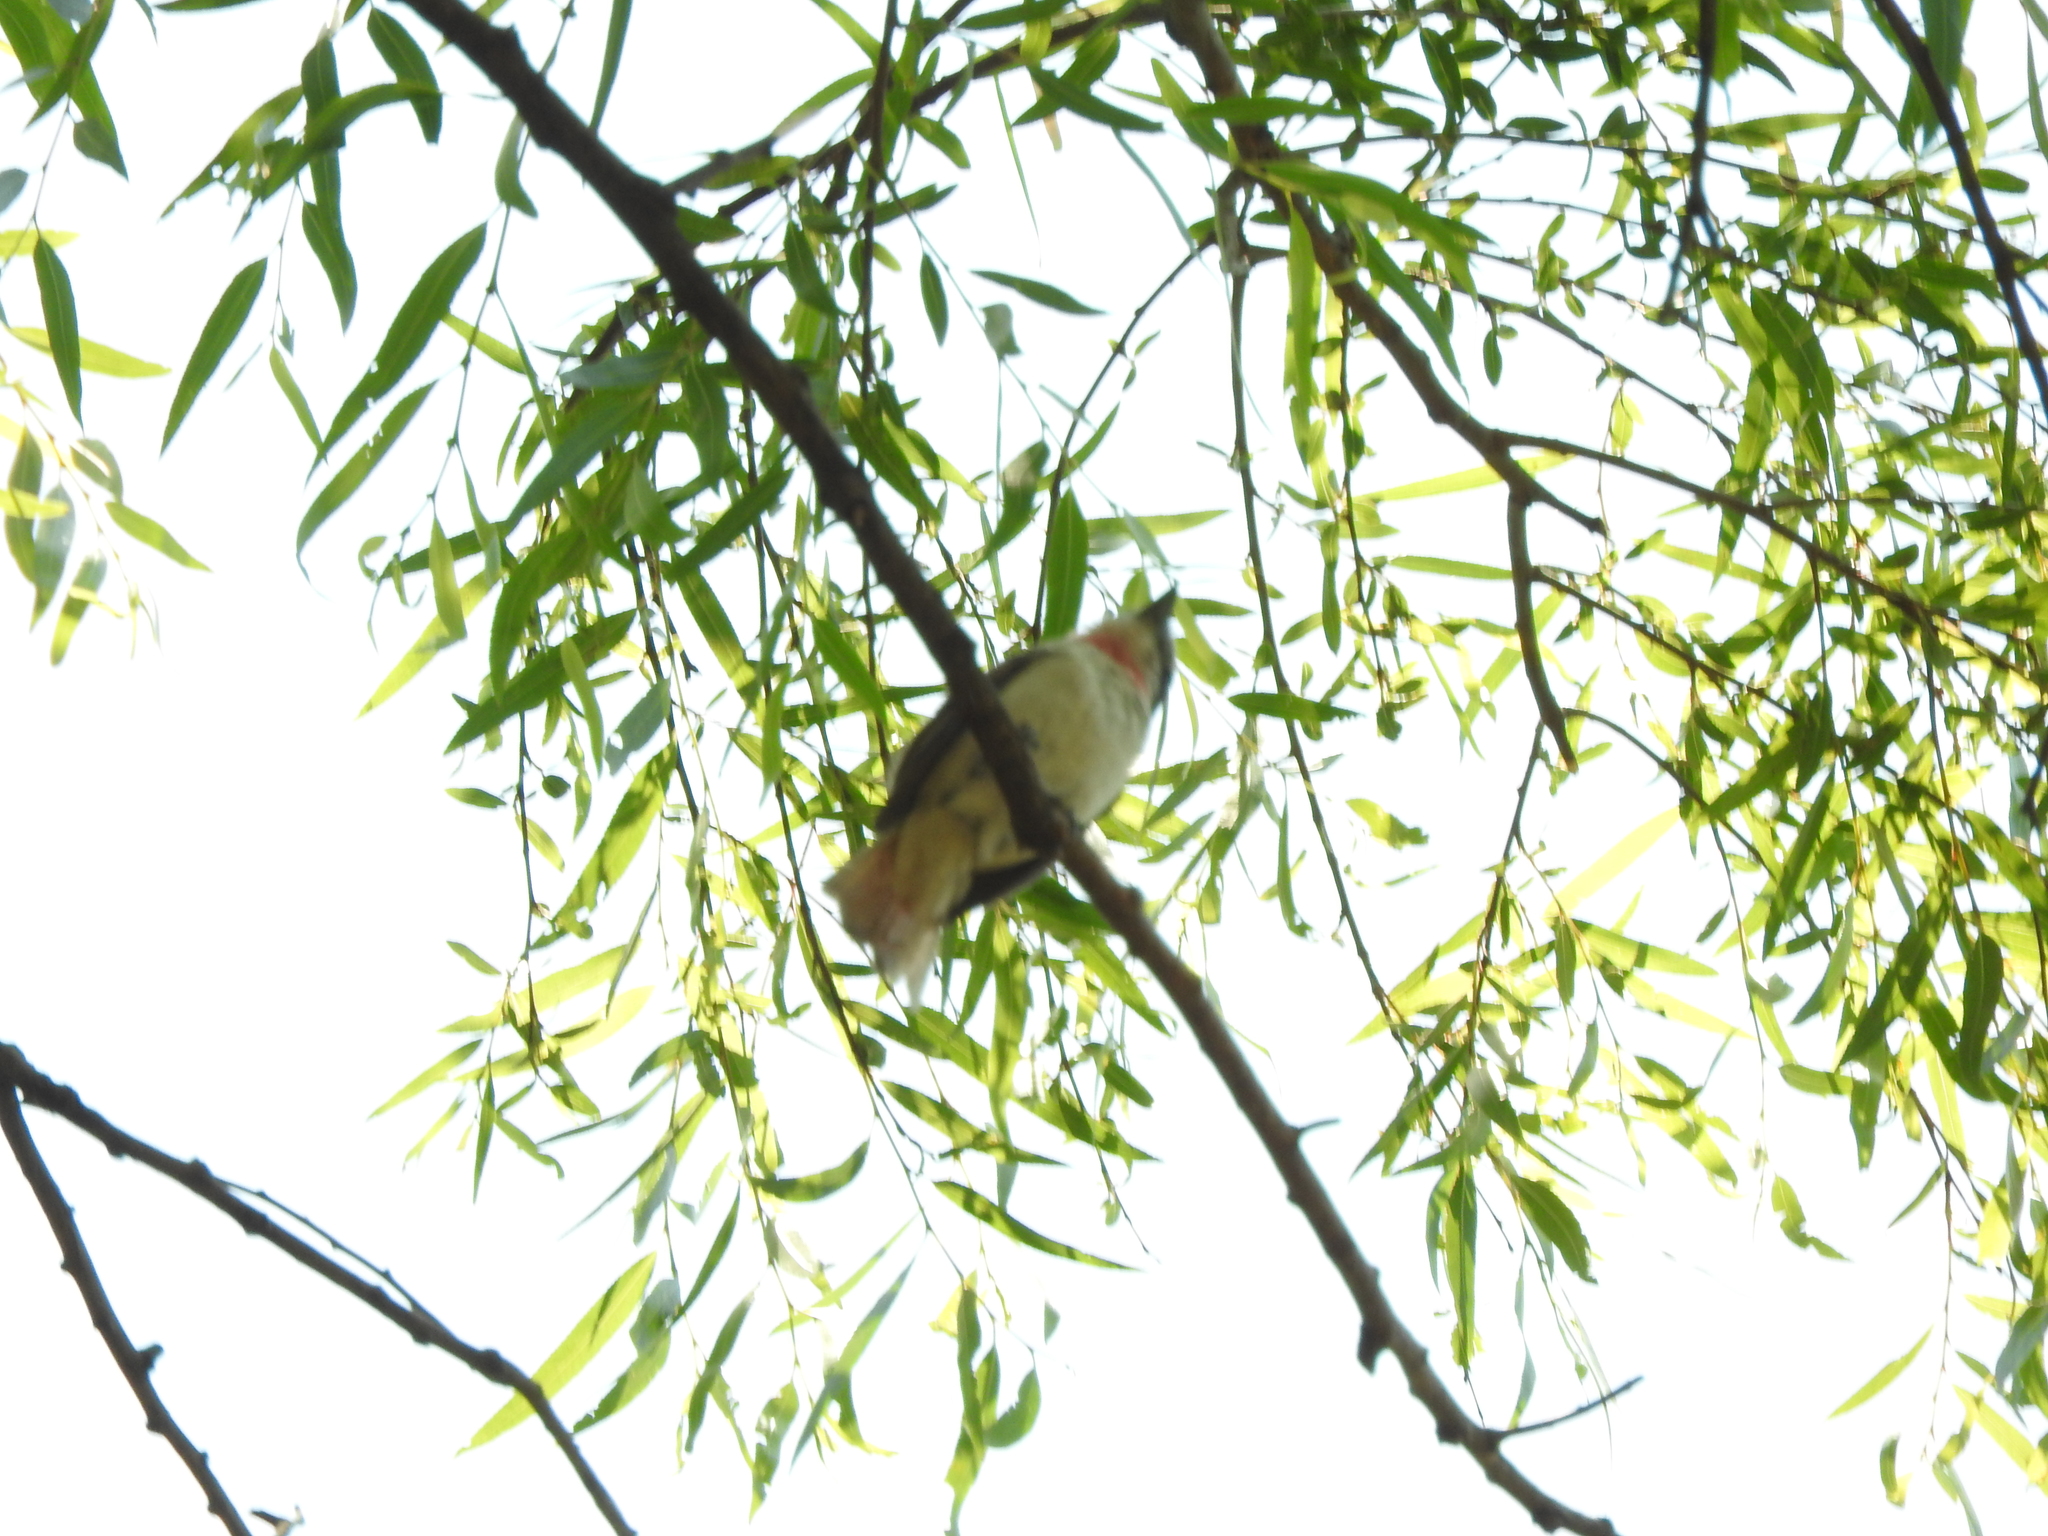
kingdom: Animalia
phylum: Chordata
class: Aves
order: Passeriformes
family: Cotingidae
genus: Pachyramphus
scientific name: Pachyramphus aglaiae
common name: Rose-throated becard
